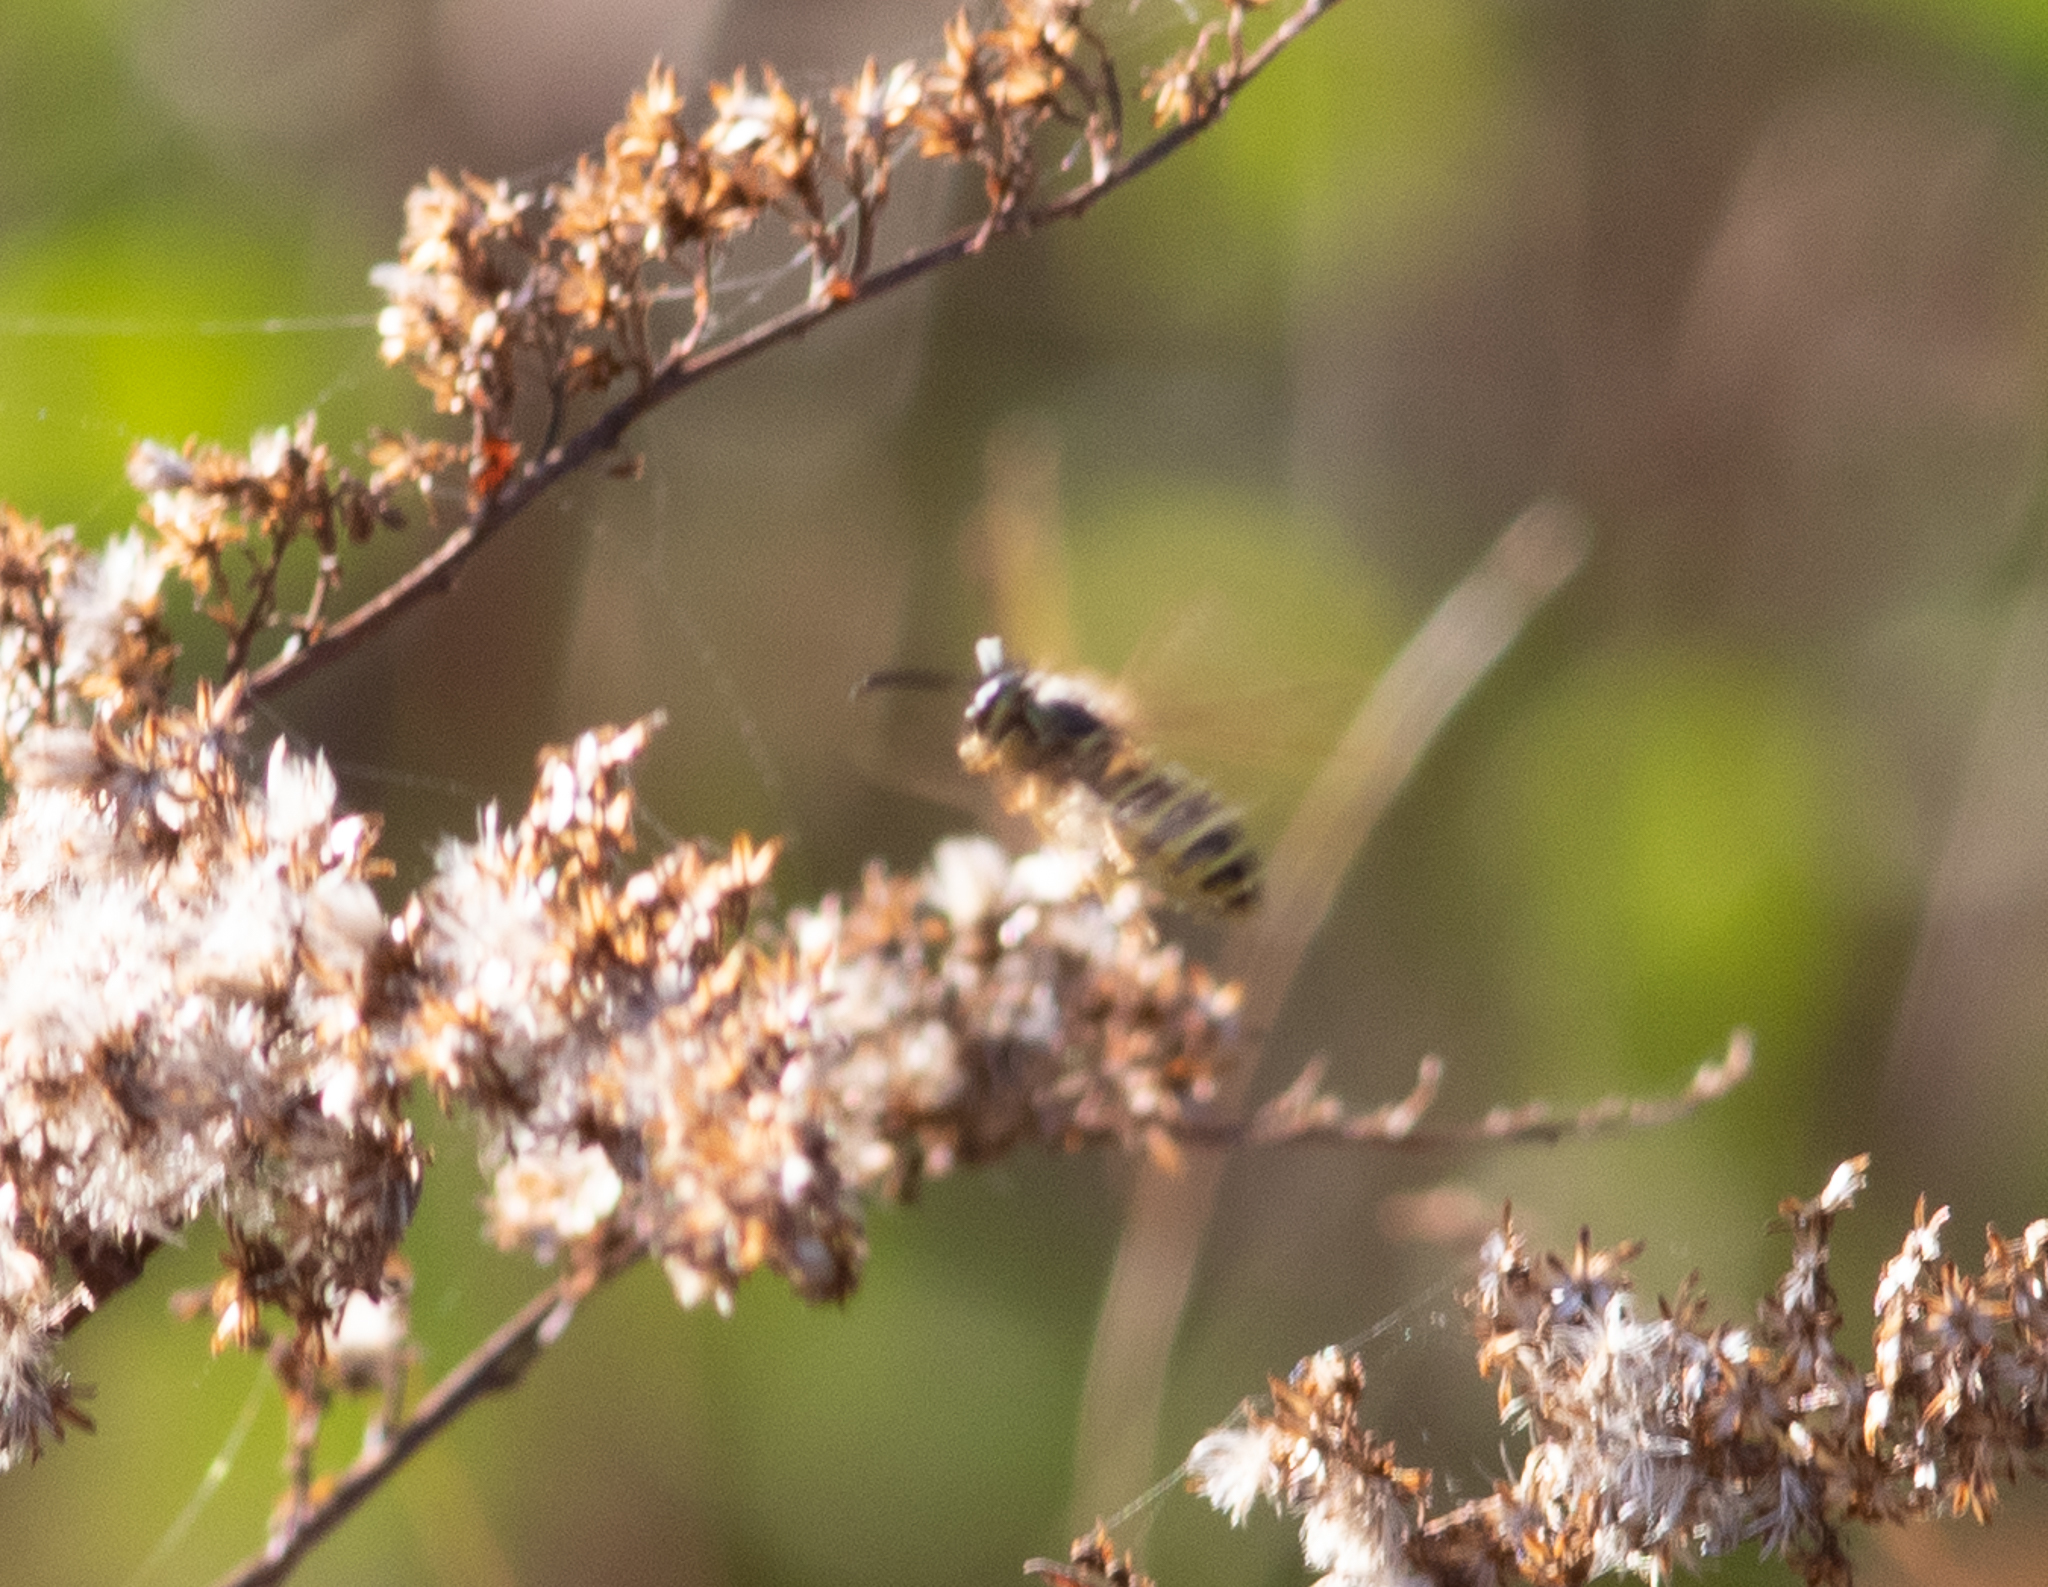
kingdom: Animalia
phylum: Arthropoda
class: Insecta
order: Hymenoptera
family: Vespidae
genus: Vespula
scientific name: Vespula
